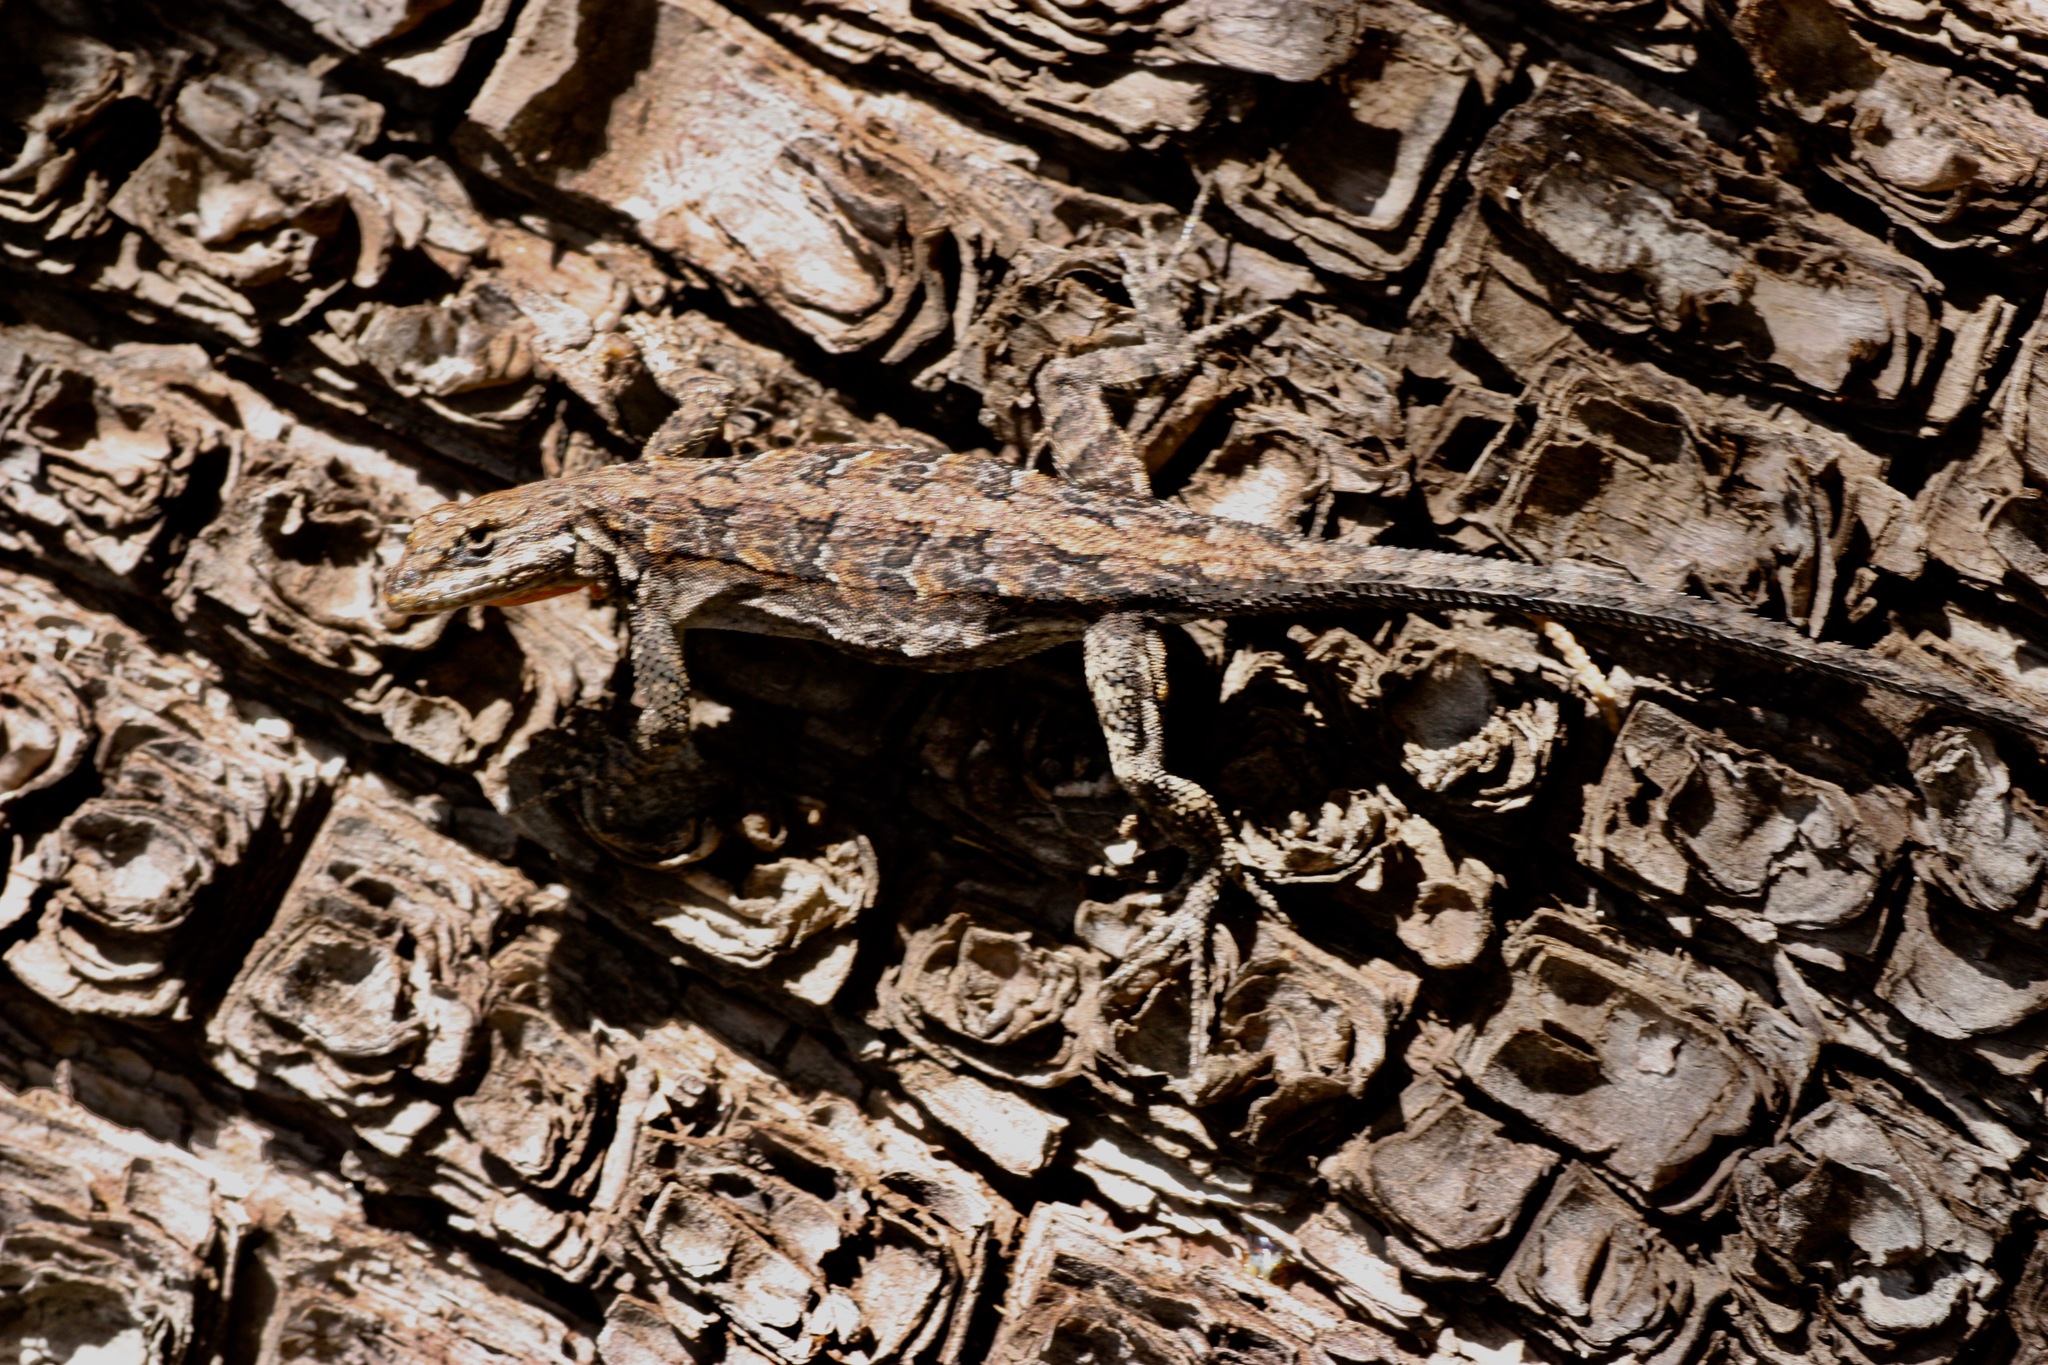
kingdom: Animalia
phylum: Chordata
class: Squamata
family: Phrynosomatidae
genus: Urosaurus
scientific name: Urosaurus ornatus
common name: Ornate tree lizard
